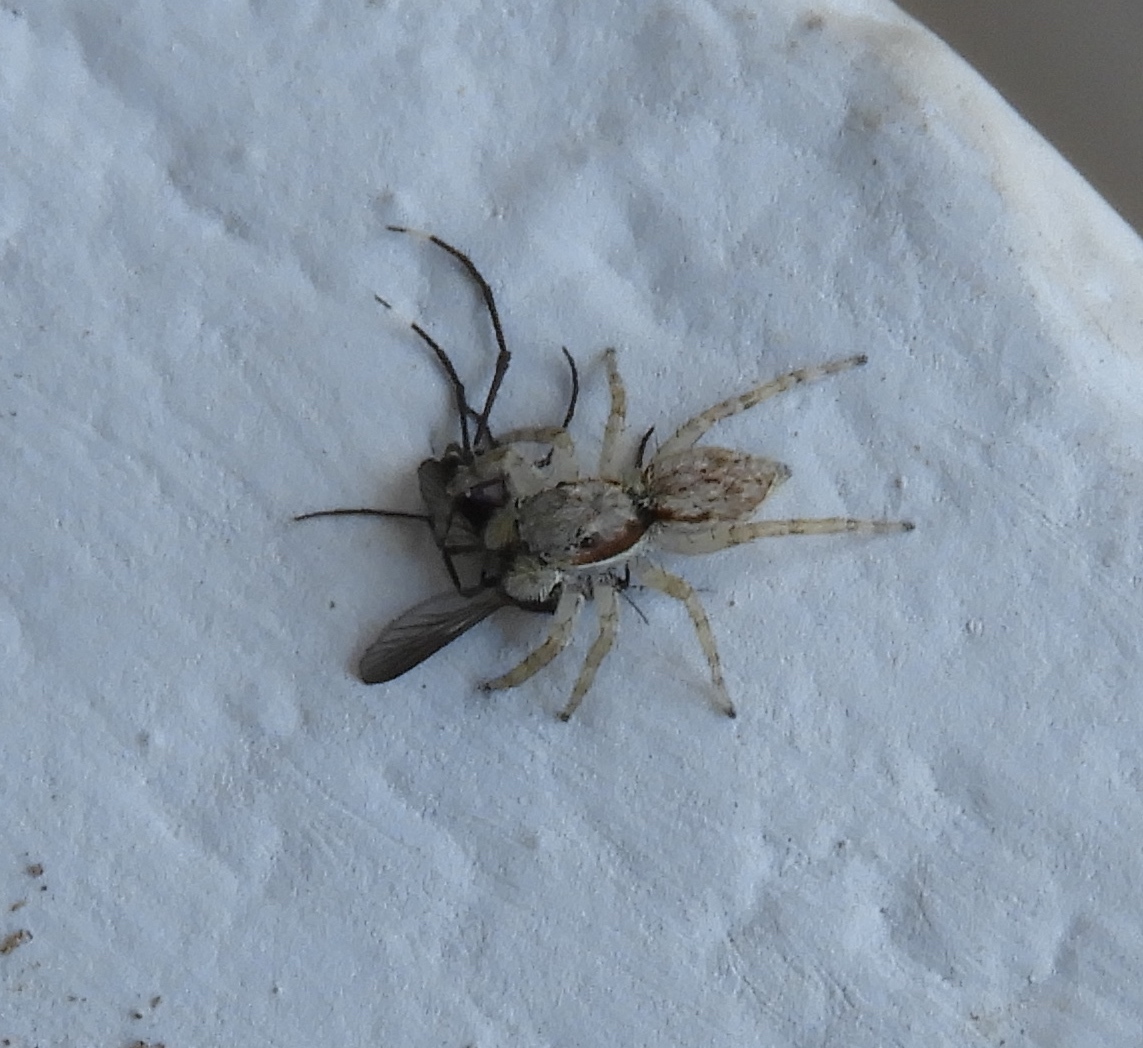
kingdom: Animalia
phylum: Arthropoda
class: Arachnida
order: Araneae
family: Salticidae
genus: Menemerus
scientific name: Menemerus bivittatus
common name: Gray wall jumper
